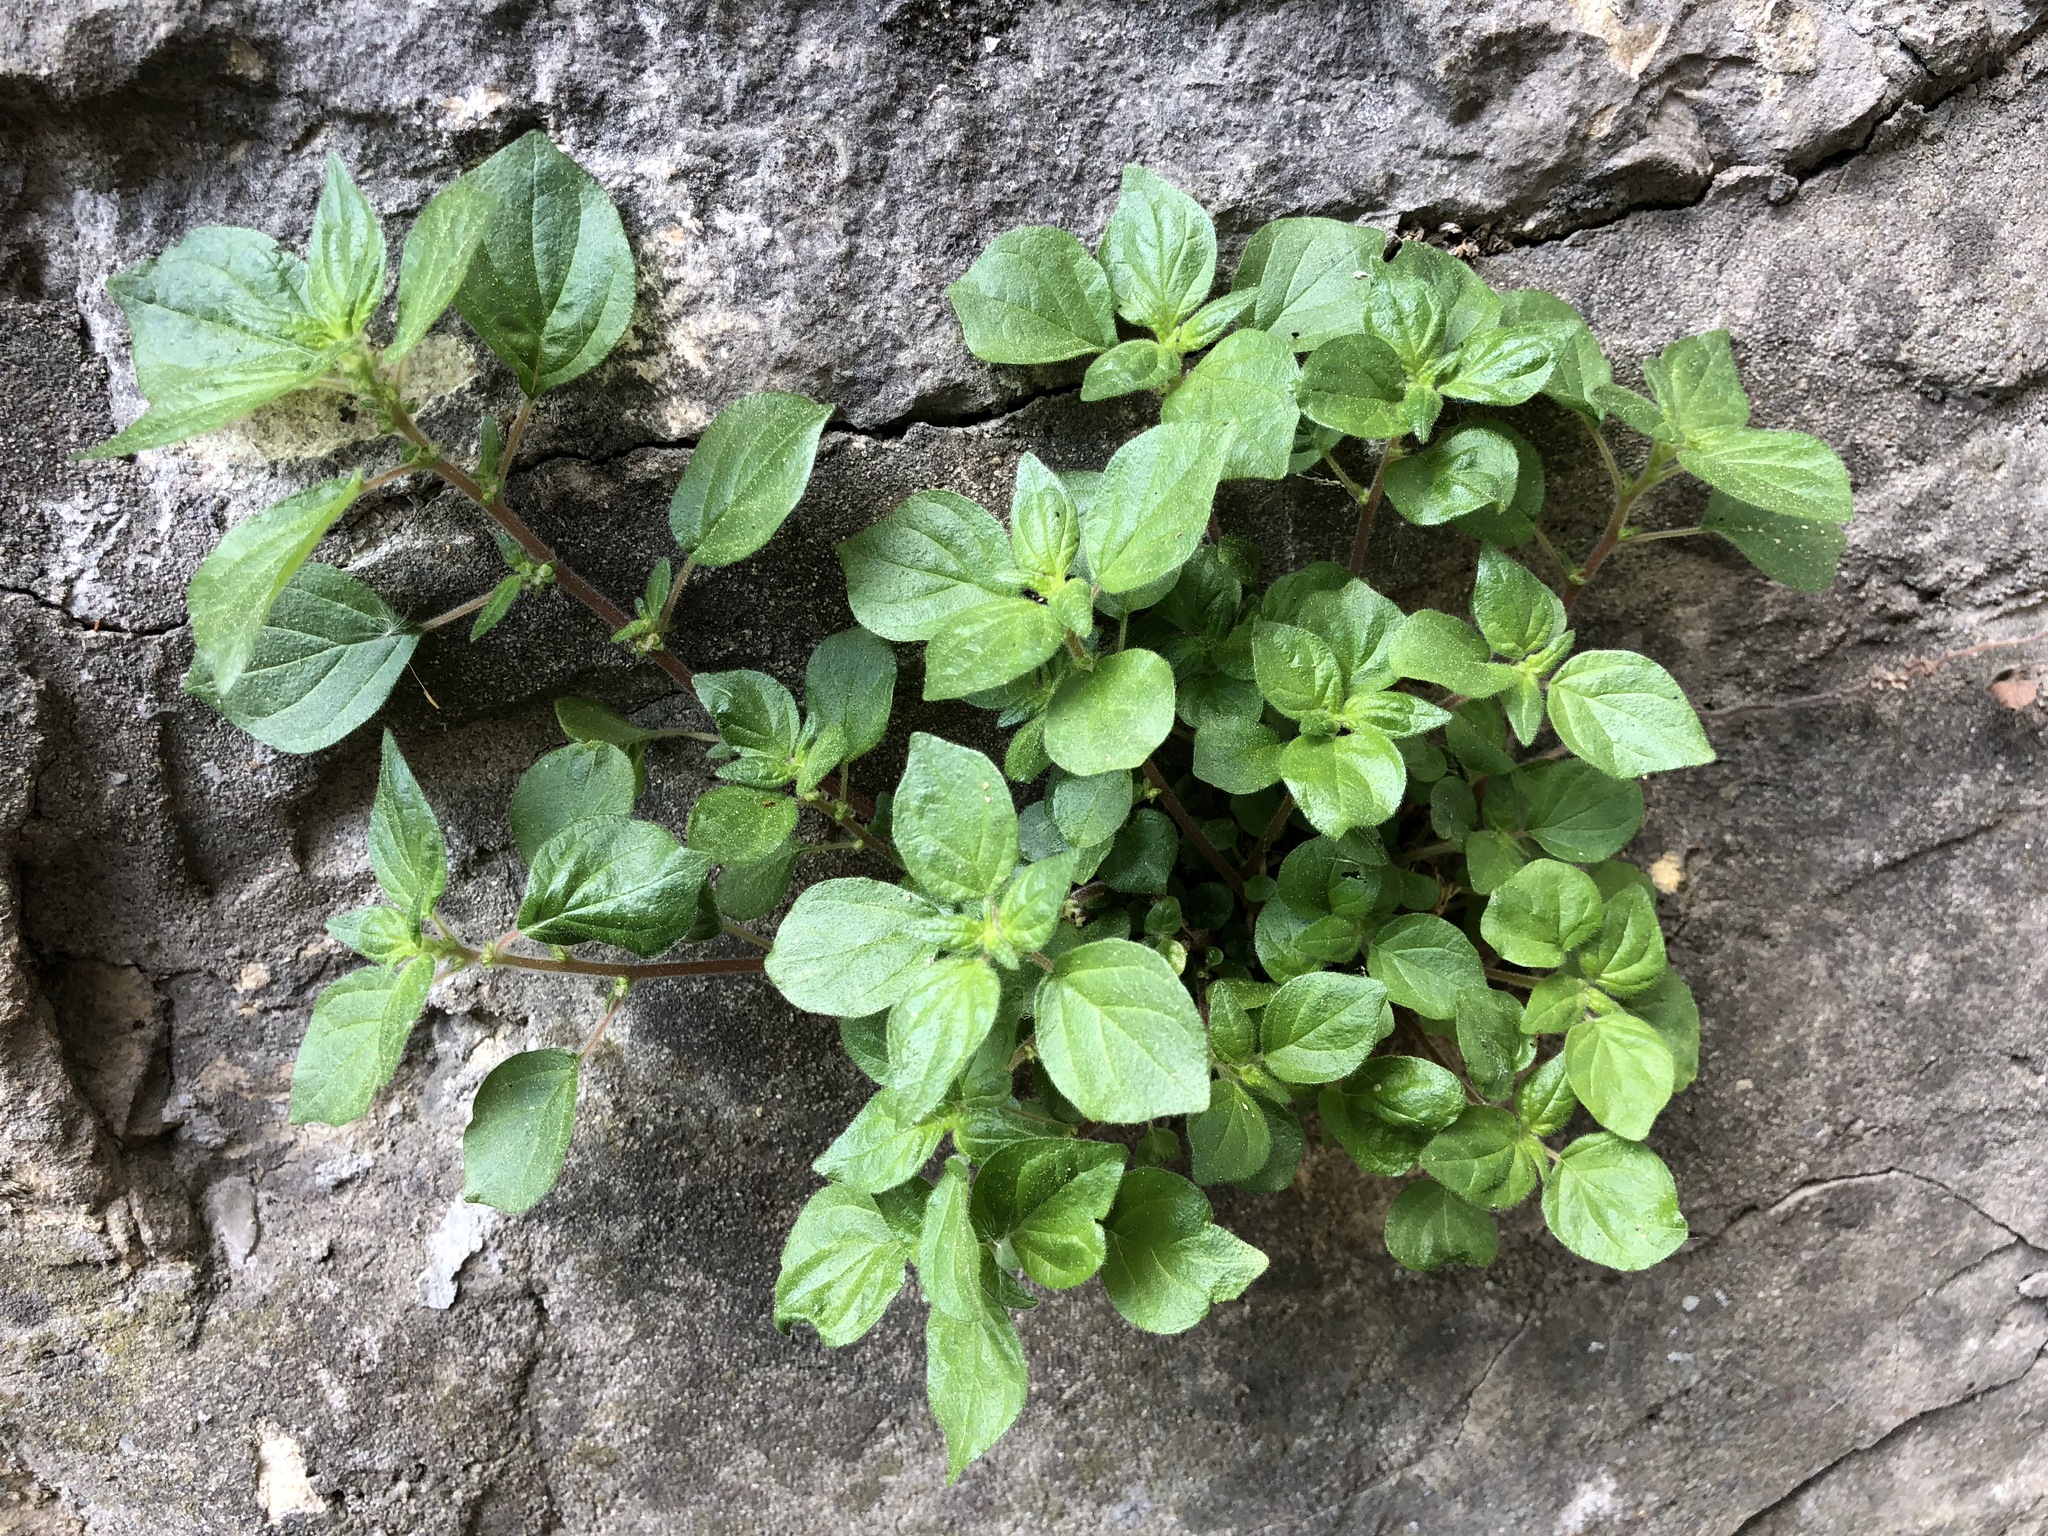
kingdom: Plantae
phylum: Tracheophyta
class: Magnoliopsida
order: Rosales
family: Urticaceae
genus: Parietaria
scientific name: Parietaria judaica
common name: Pellitory-of-the-wall
